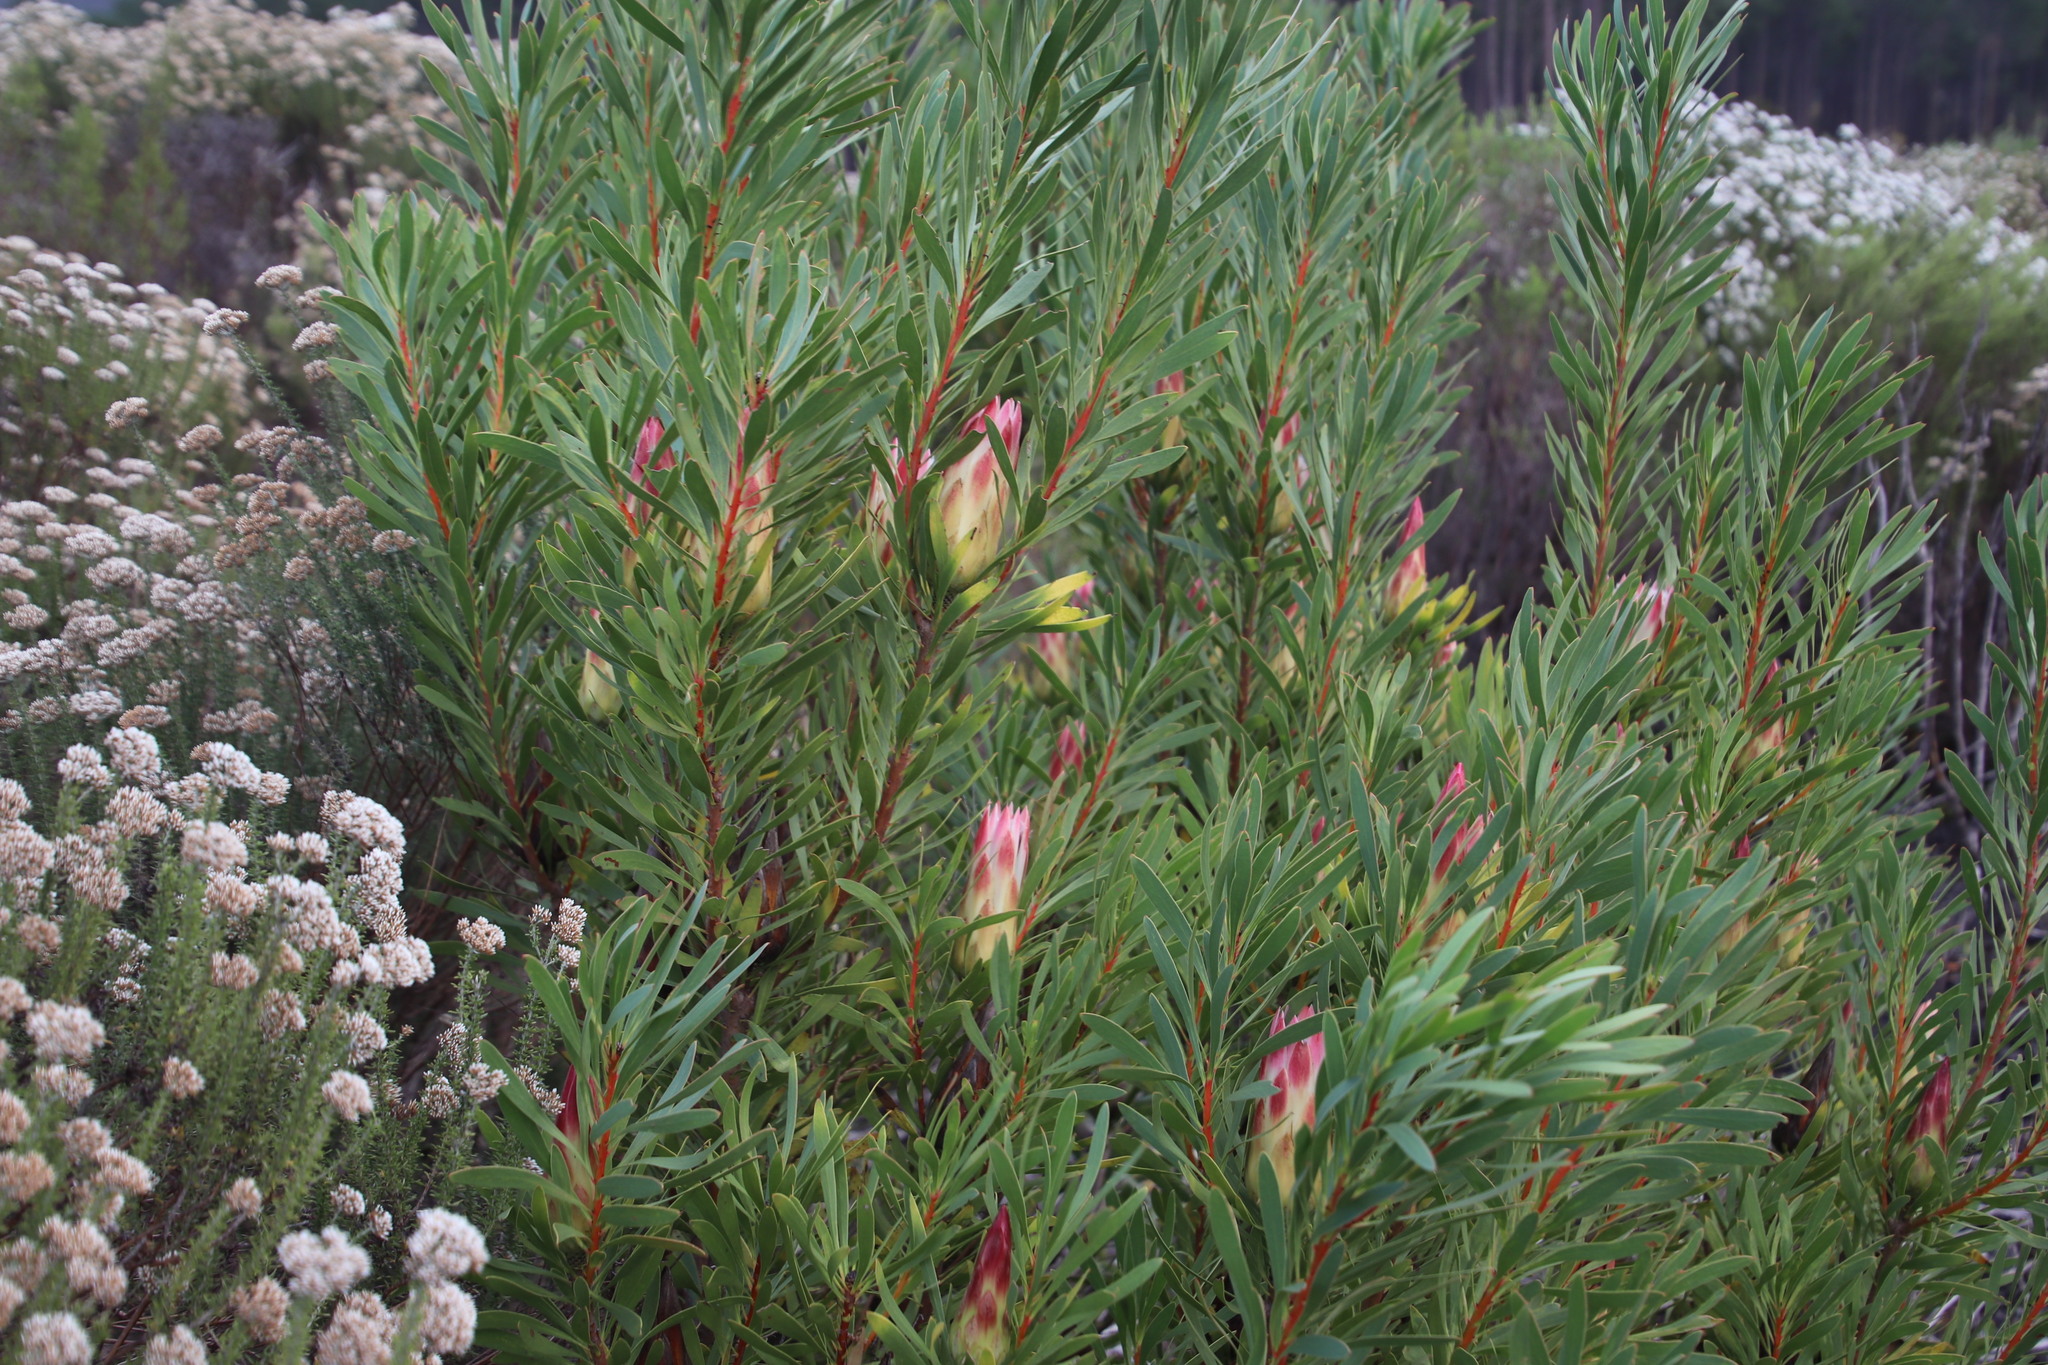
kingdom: Plantae
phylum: Tracheophyta
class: Magnoliopsida
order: Proteales
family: Proteaceae
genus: Protea
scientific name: Protea repens
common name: Sugarbush
